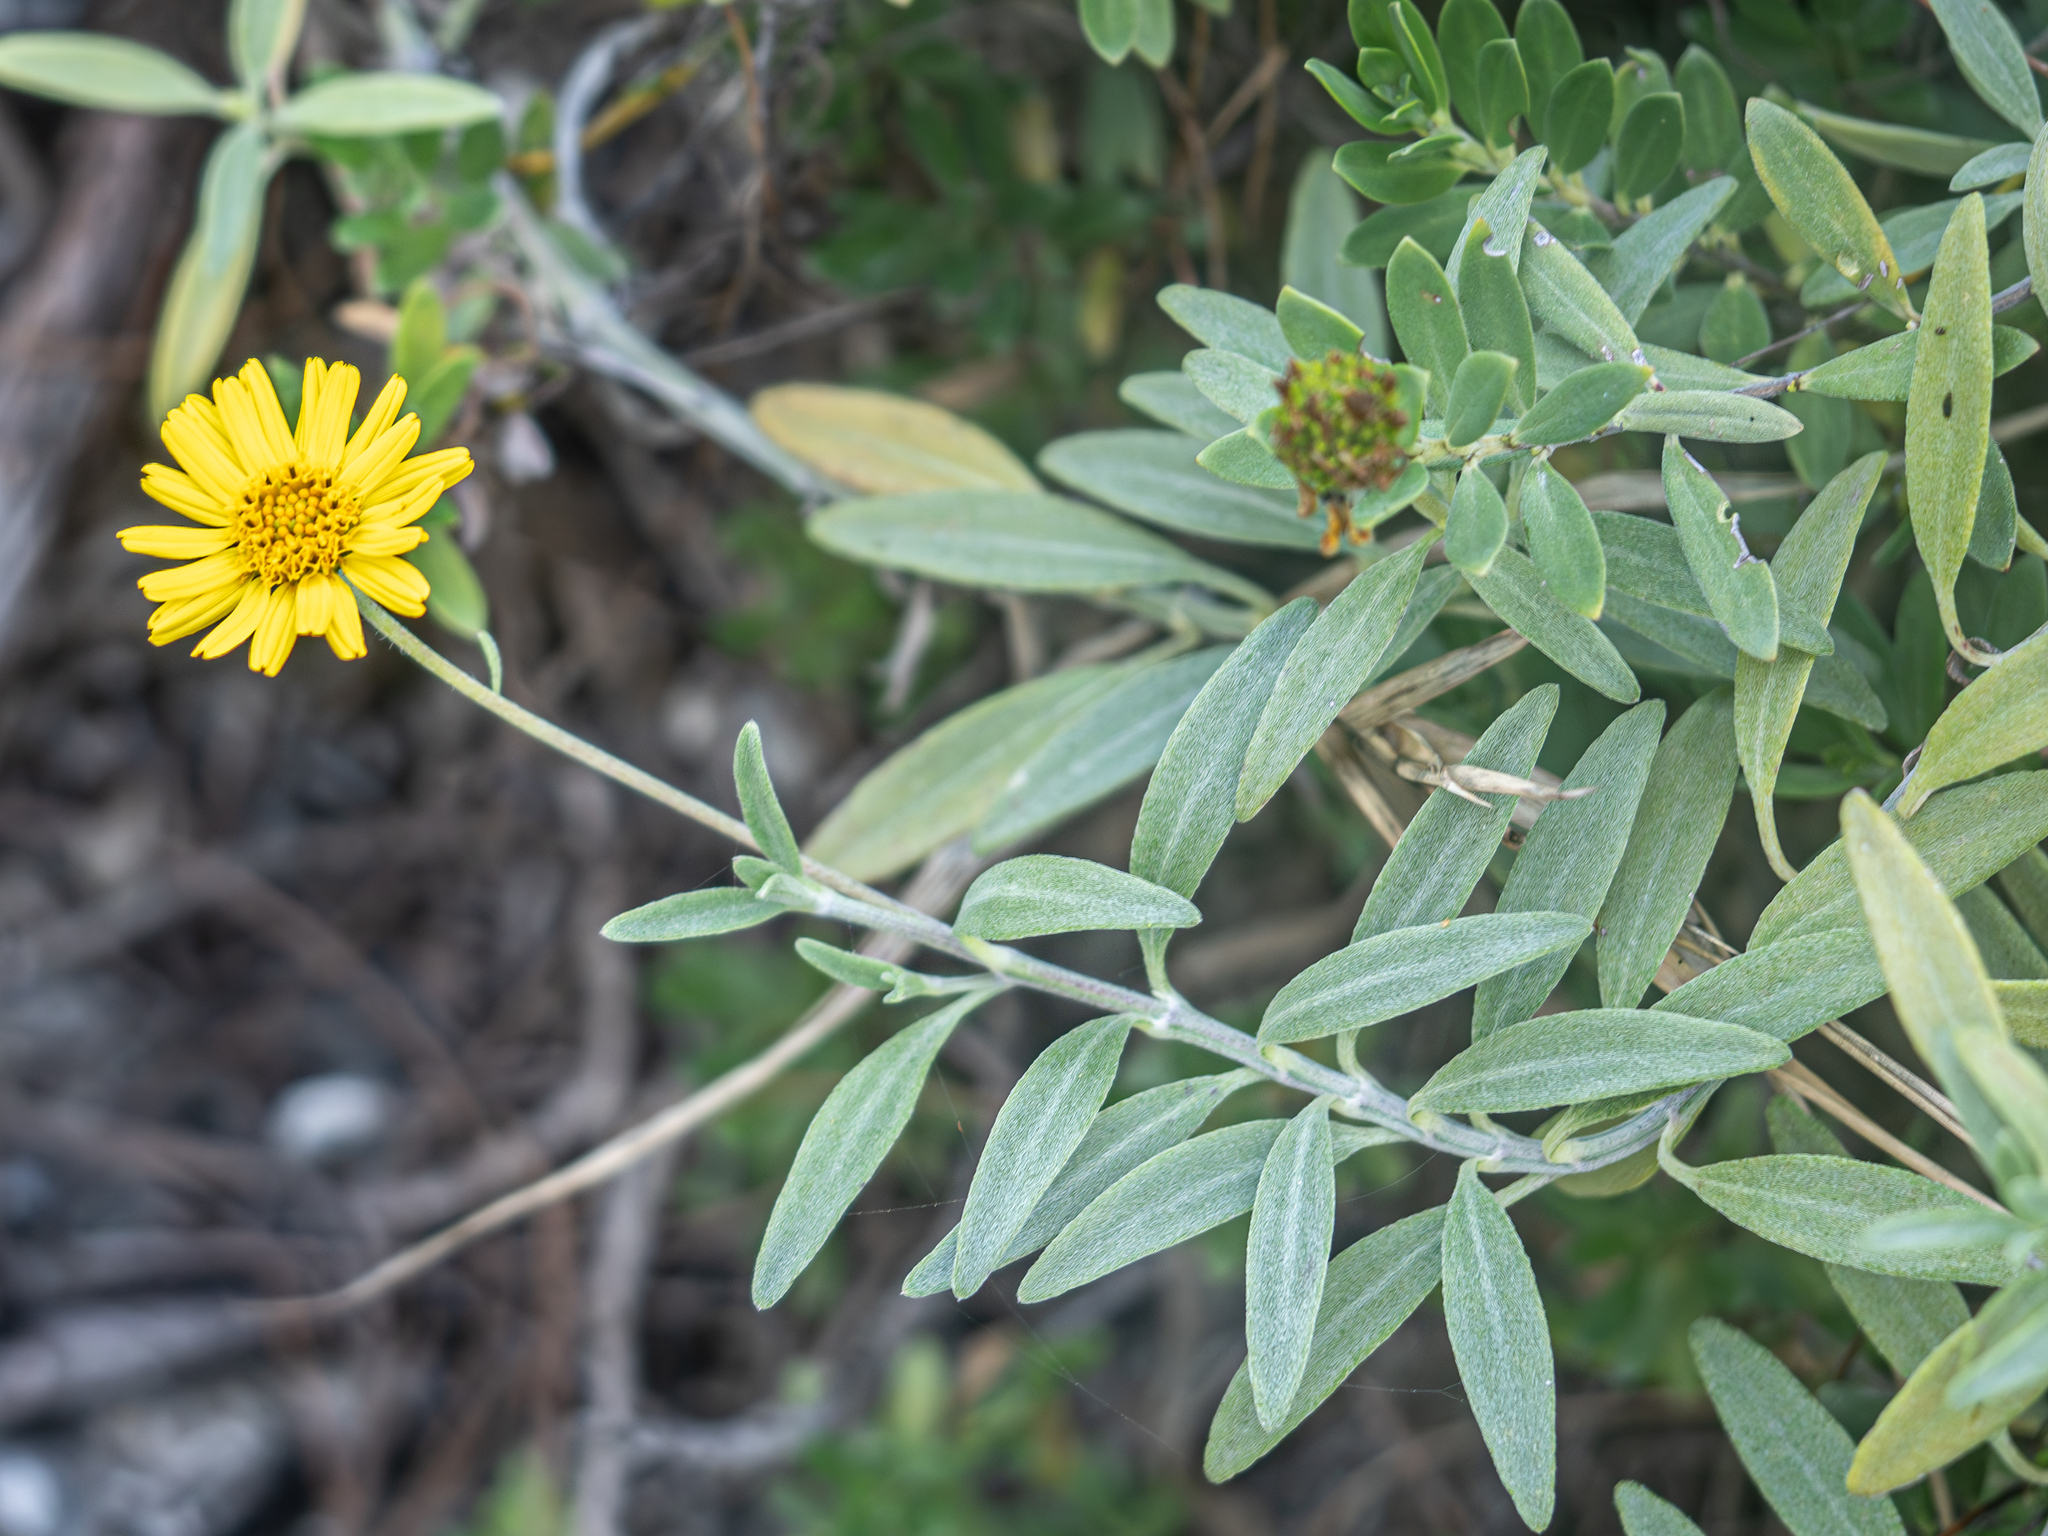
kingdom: Plantae
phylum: Tracheophyta
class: Magnoliopsida
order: Asterales
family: Asteraceae
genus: Wollastonia
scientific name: Wollastonia lifuana
